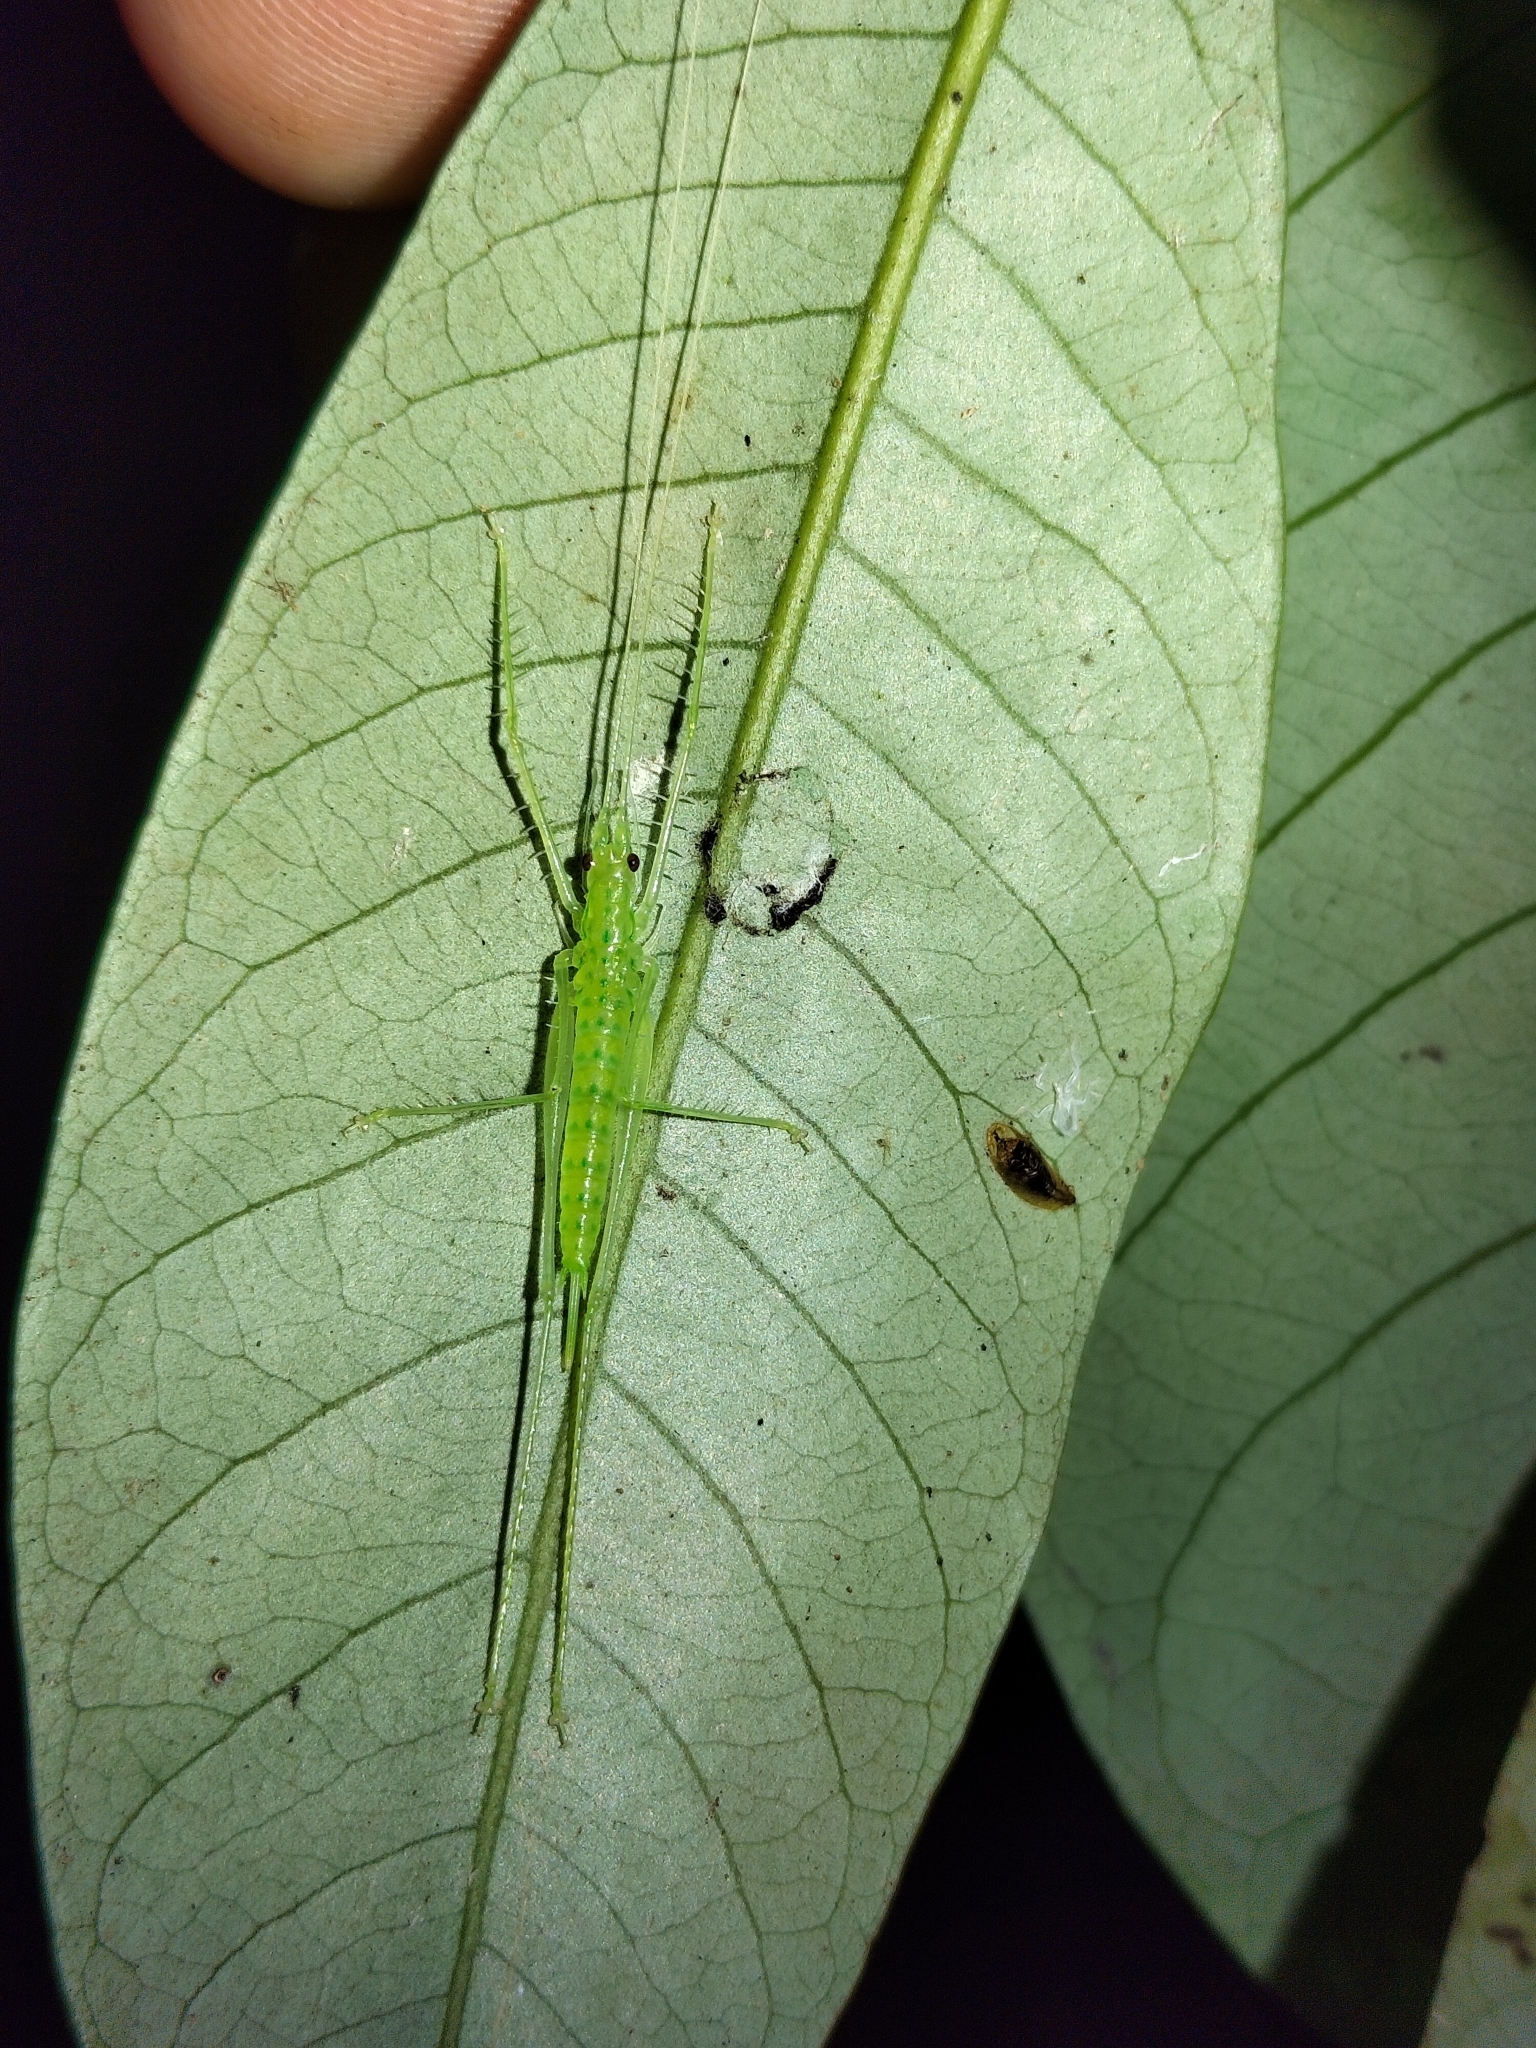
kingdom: Animalia
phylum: Arthropoda
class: Insecta
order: Orthoptera
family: Tettigoniidae
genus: Meiophisis
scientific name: Meiophisis likkaldin
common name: Short-winged spider katydid
